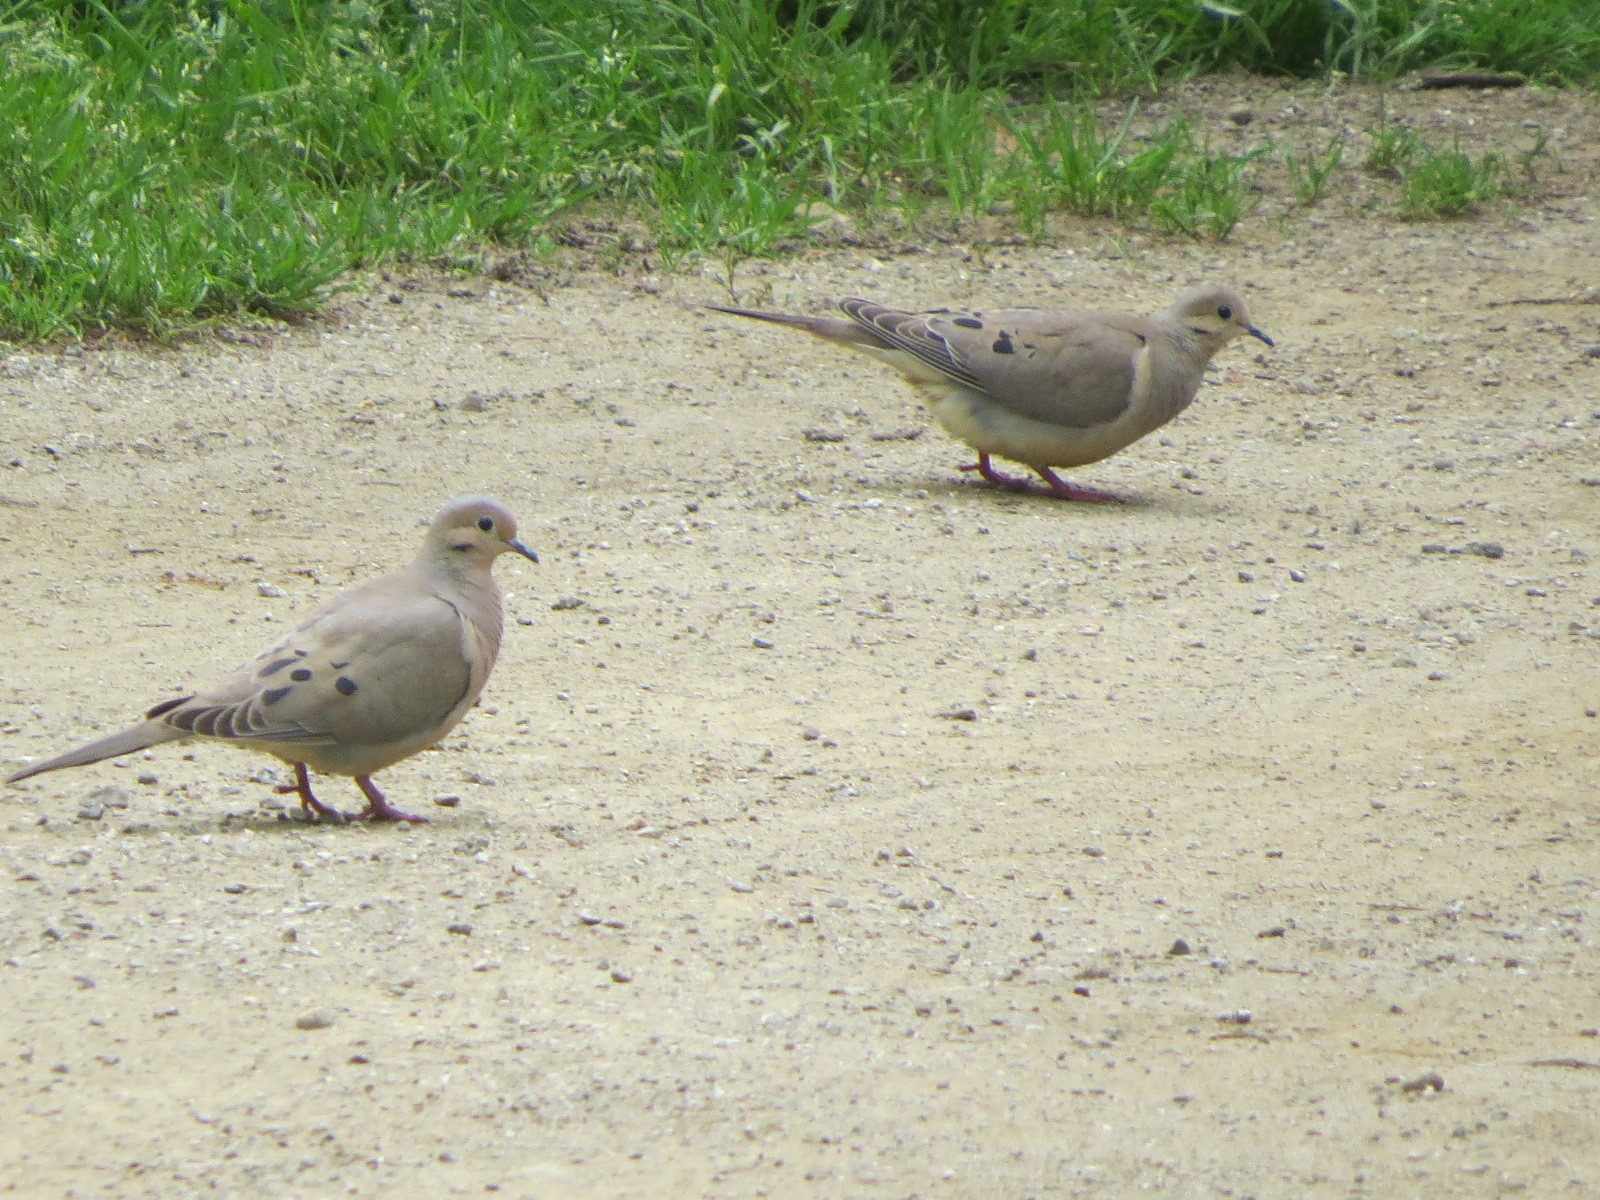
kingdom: Animalia
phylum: Chordata
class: Aves
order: Columbiformes
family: Columbidae
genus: Zenaida
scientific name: Zenaida macroura
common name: Mourning dove
